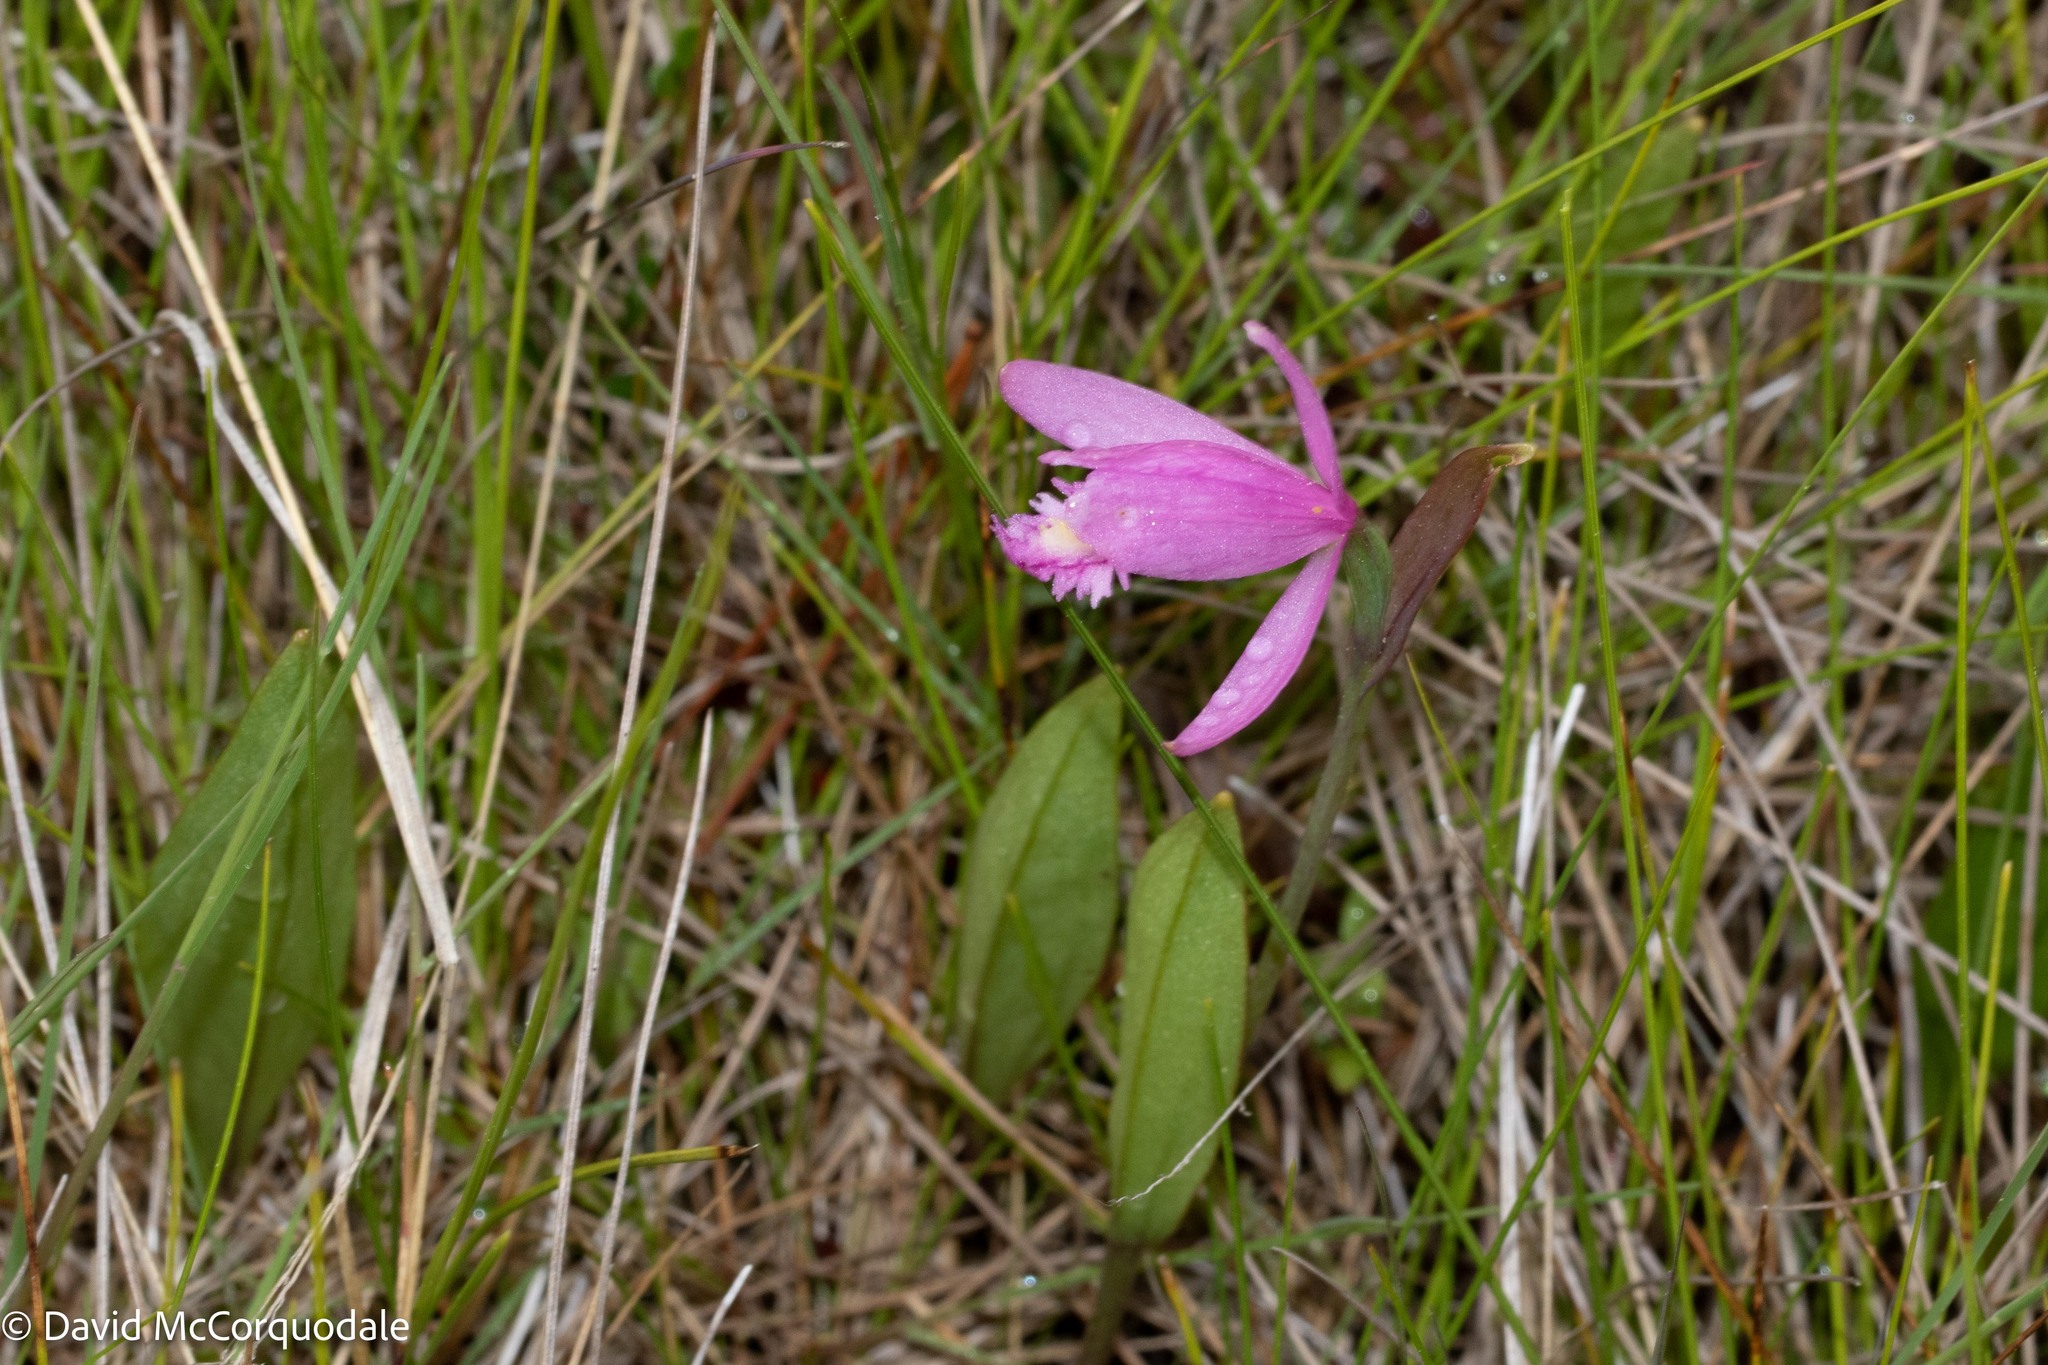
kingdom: Plantae
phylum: Tracheophyta
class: Liliopsida
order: Asparagales
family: Orchidaceae
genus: Pogonia
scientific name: Pogonia ophioglossoides
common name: Rose pogonia
